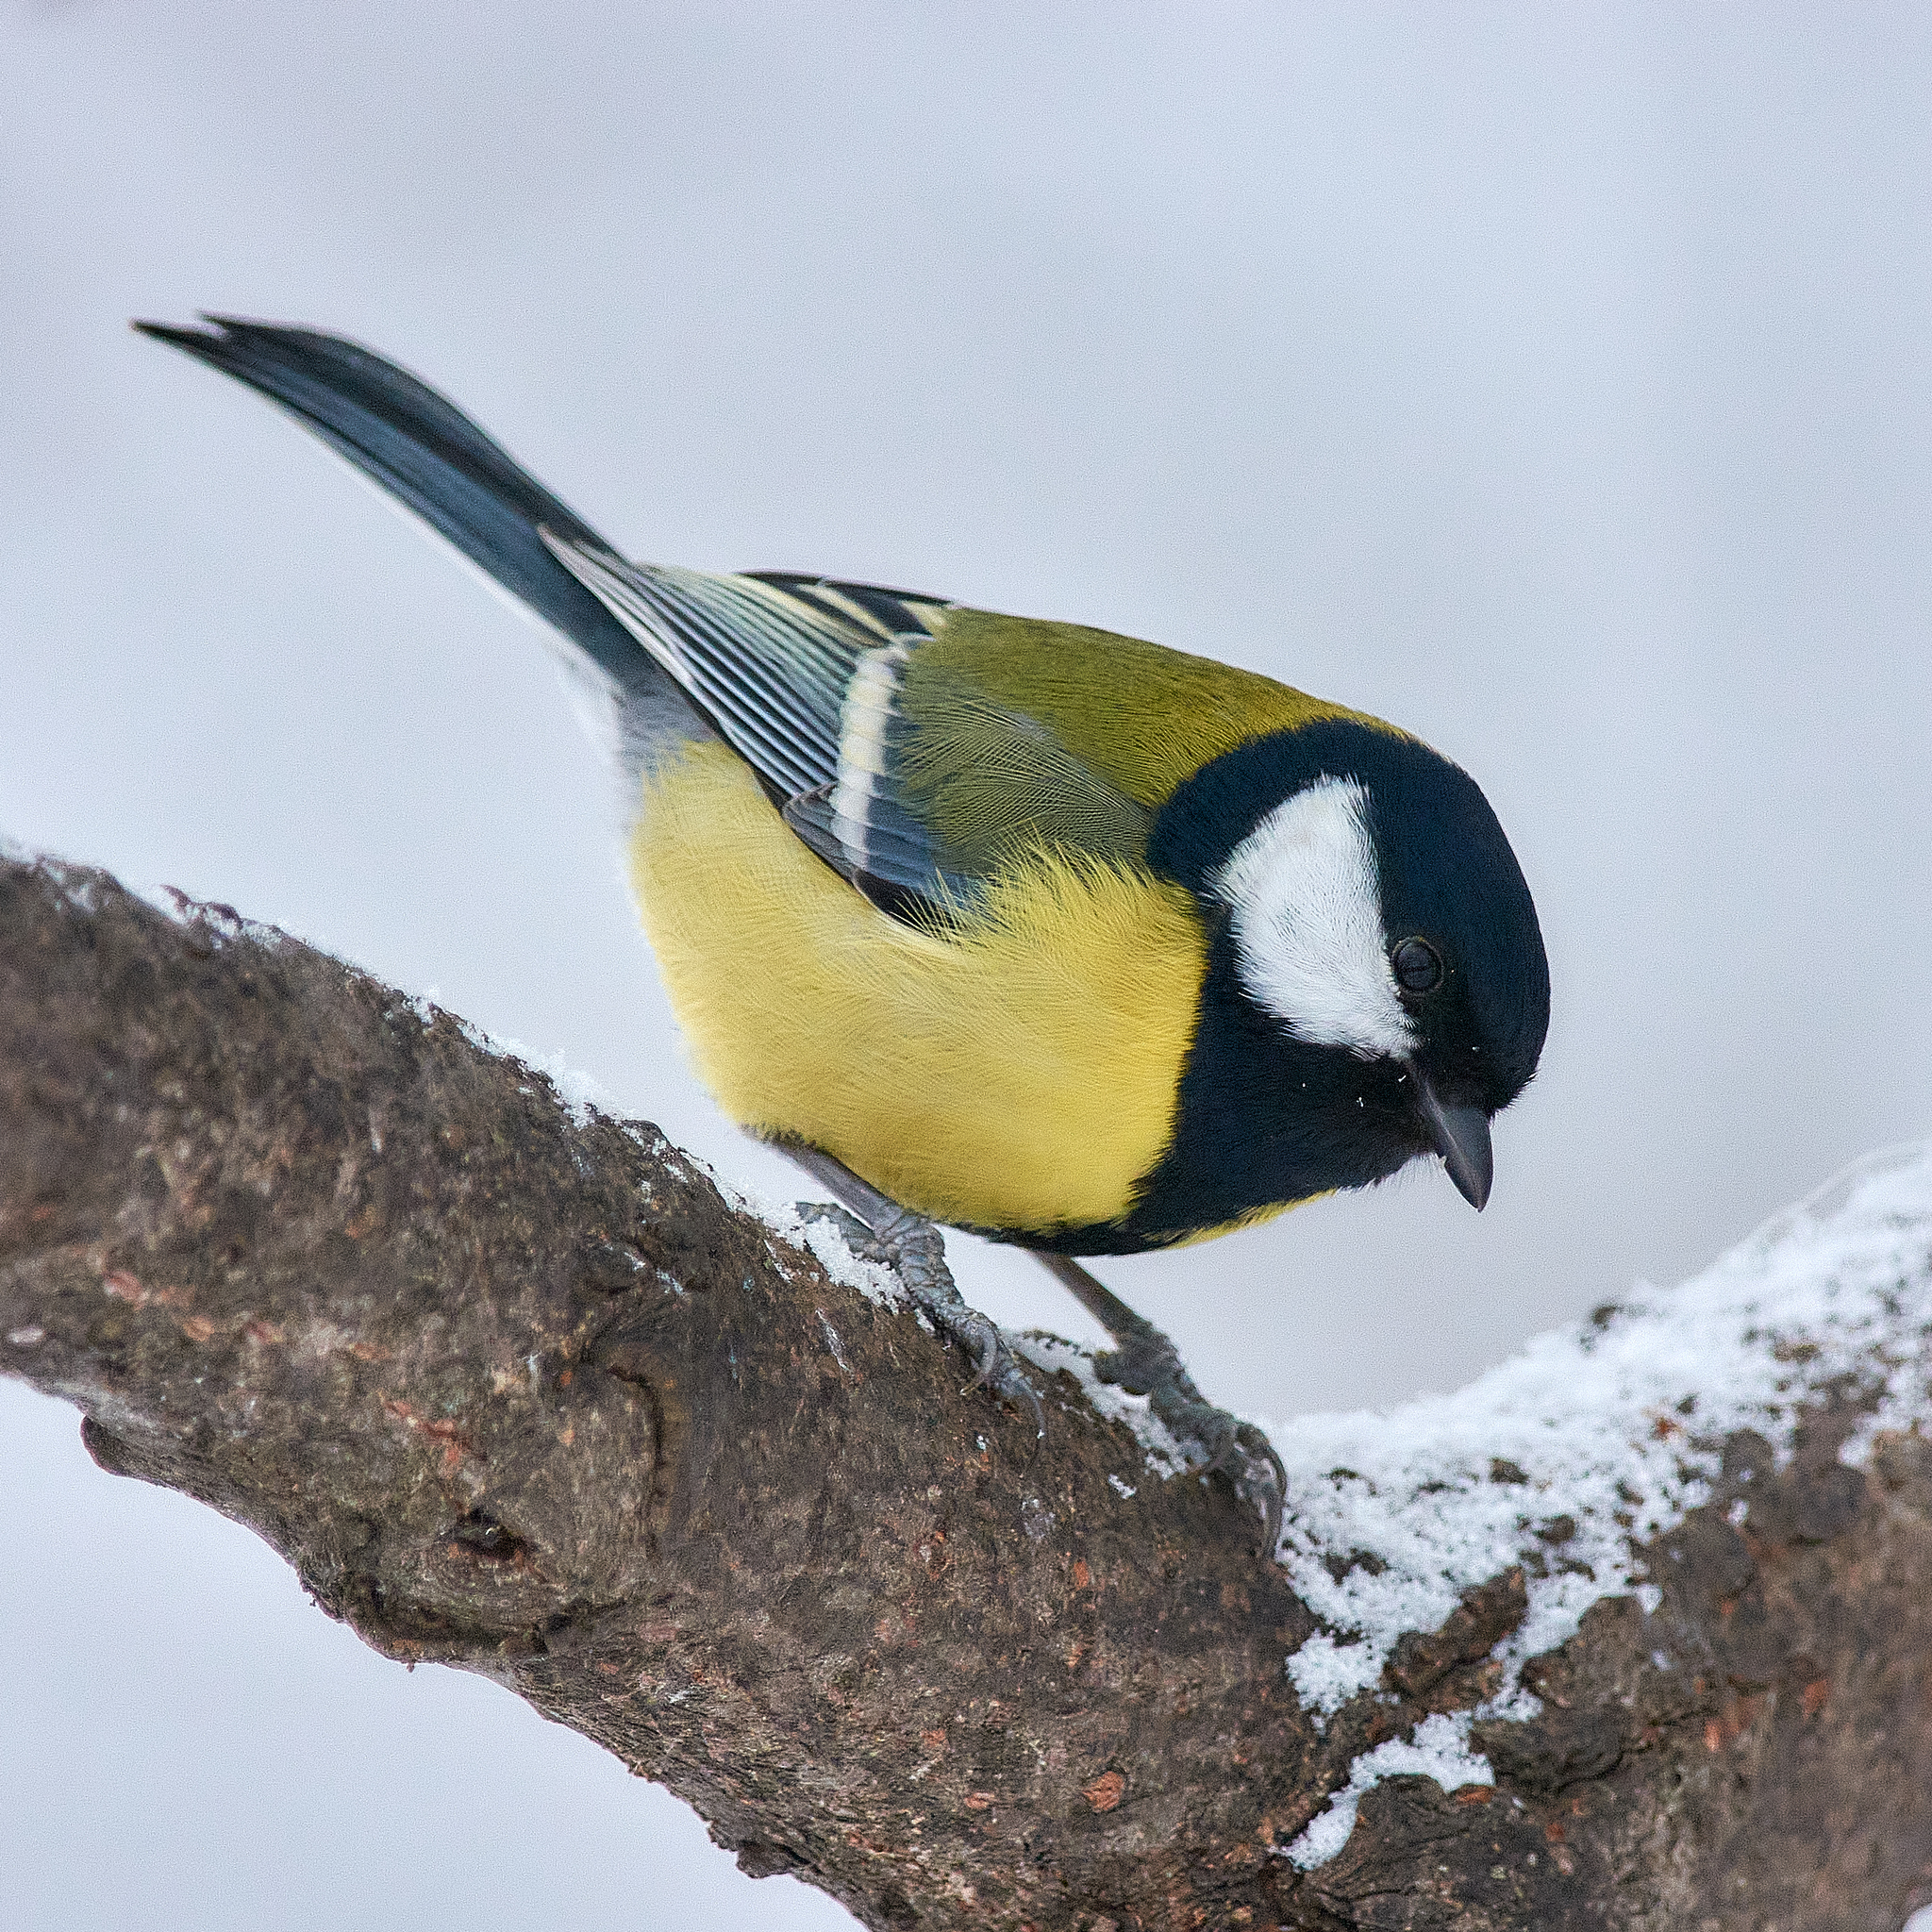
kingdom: Animalia
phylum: Chordata
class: Aves
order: Passeriformes
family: Paridae
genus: Parus
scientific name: Parus major
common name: Great tit
